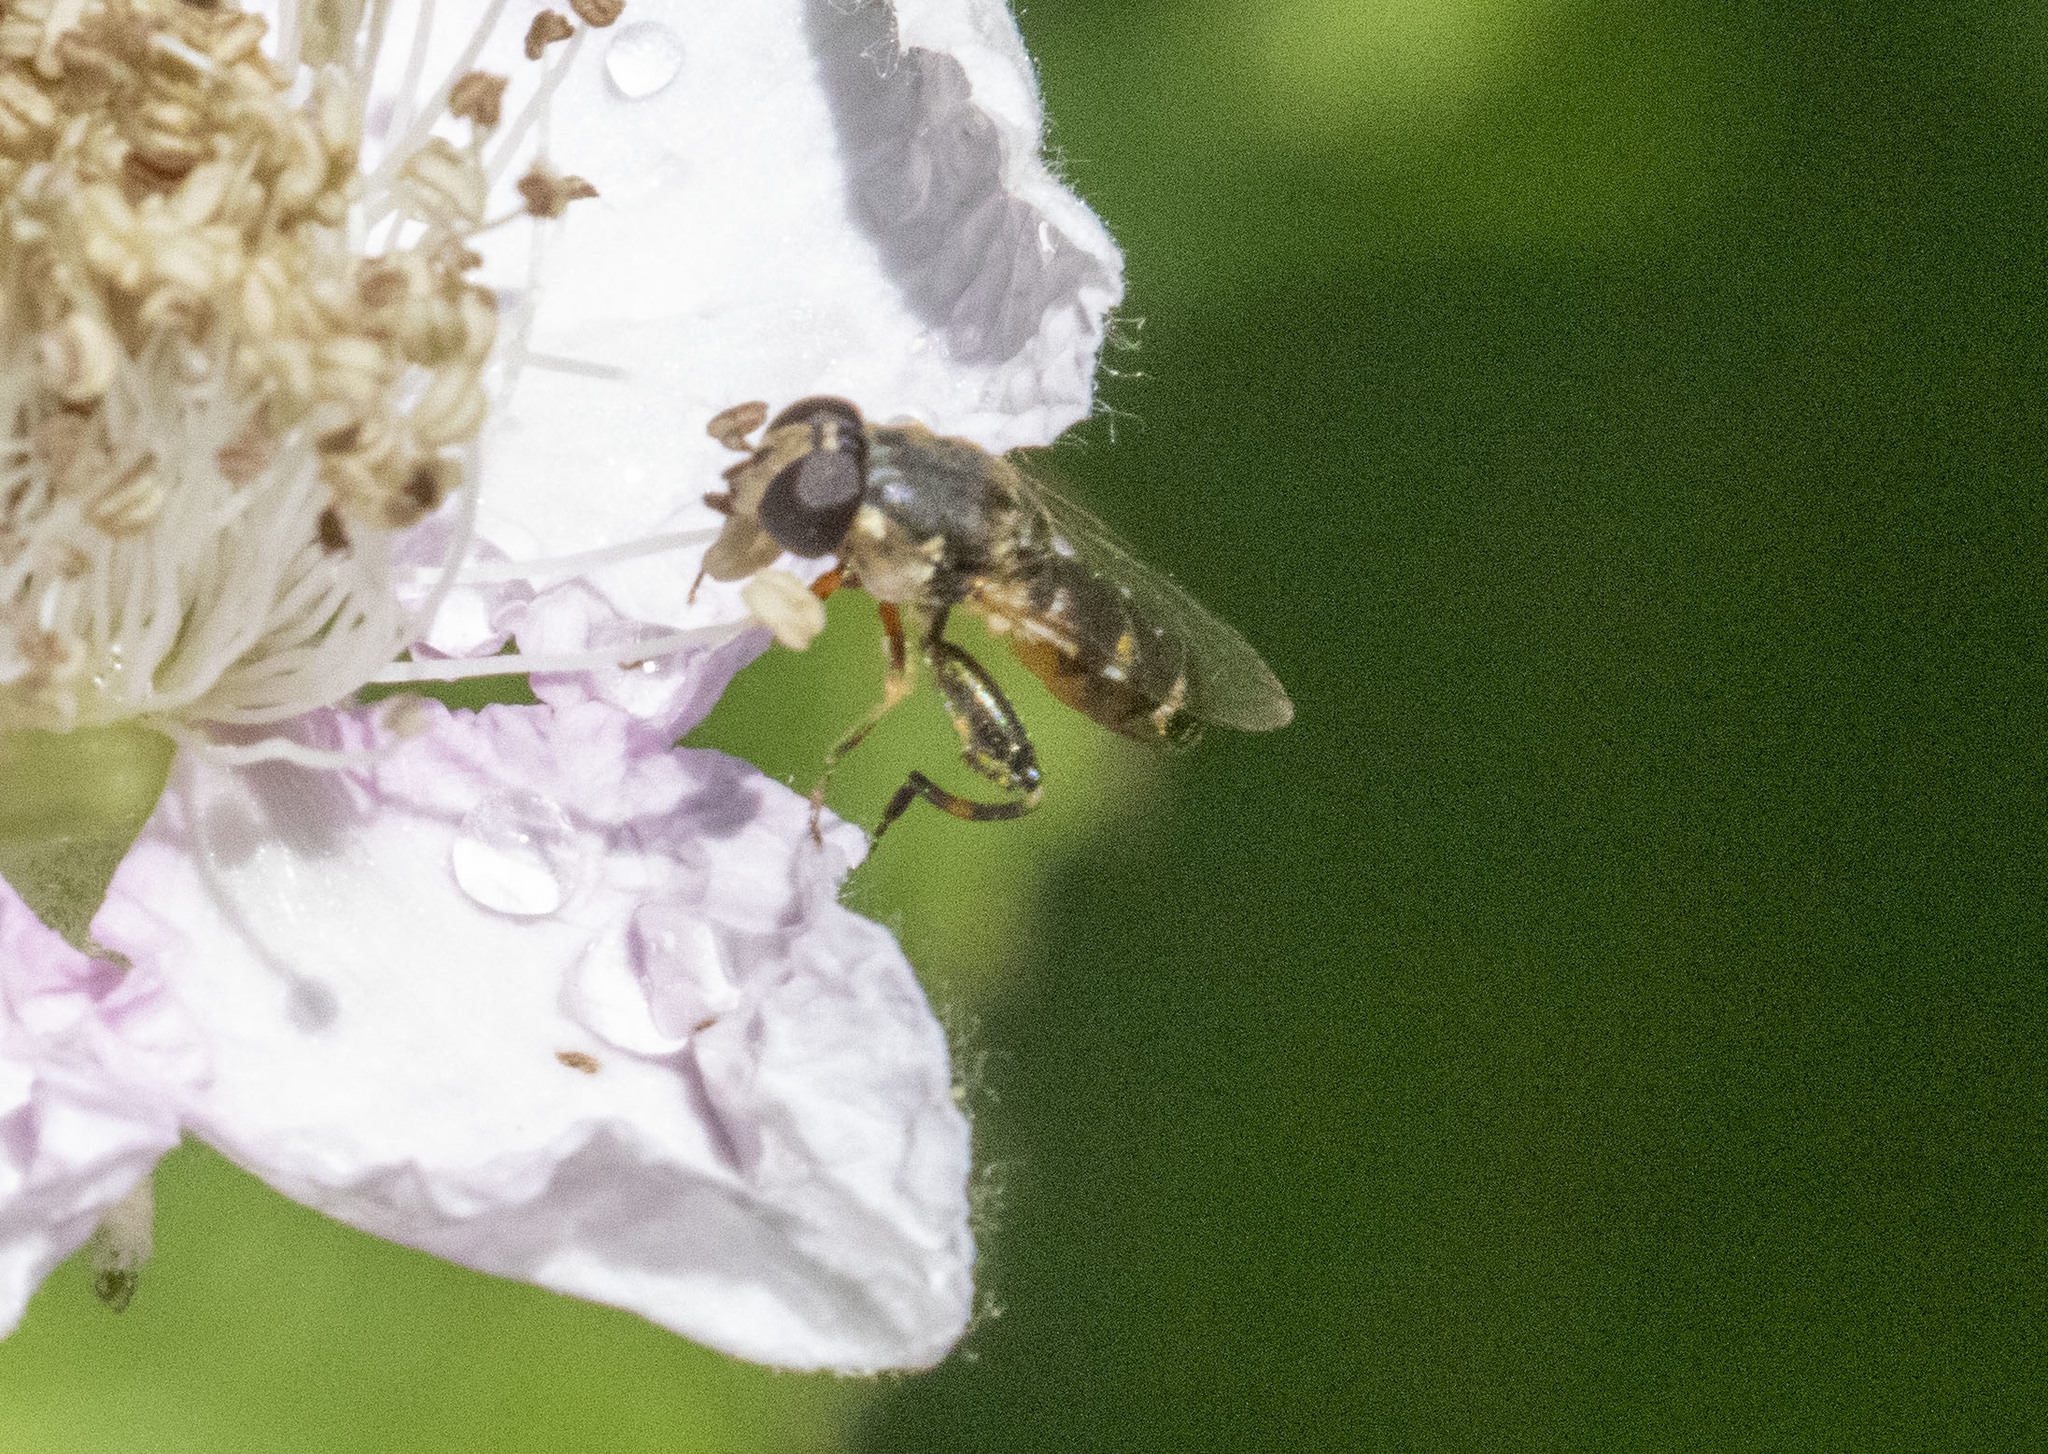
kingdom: Animalia
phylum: Arthropoda
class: Insecta
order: Diptera
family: Syrphidae
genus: Syritta
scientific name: Syritta pipiens
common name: Hover fly
